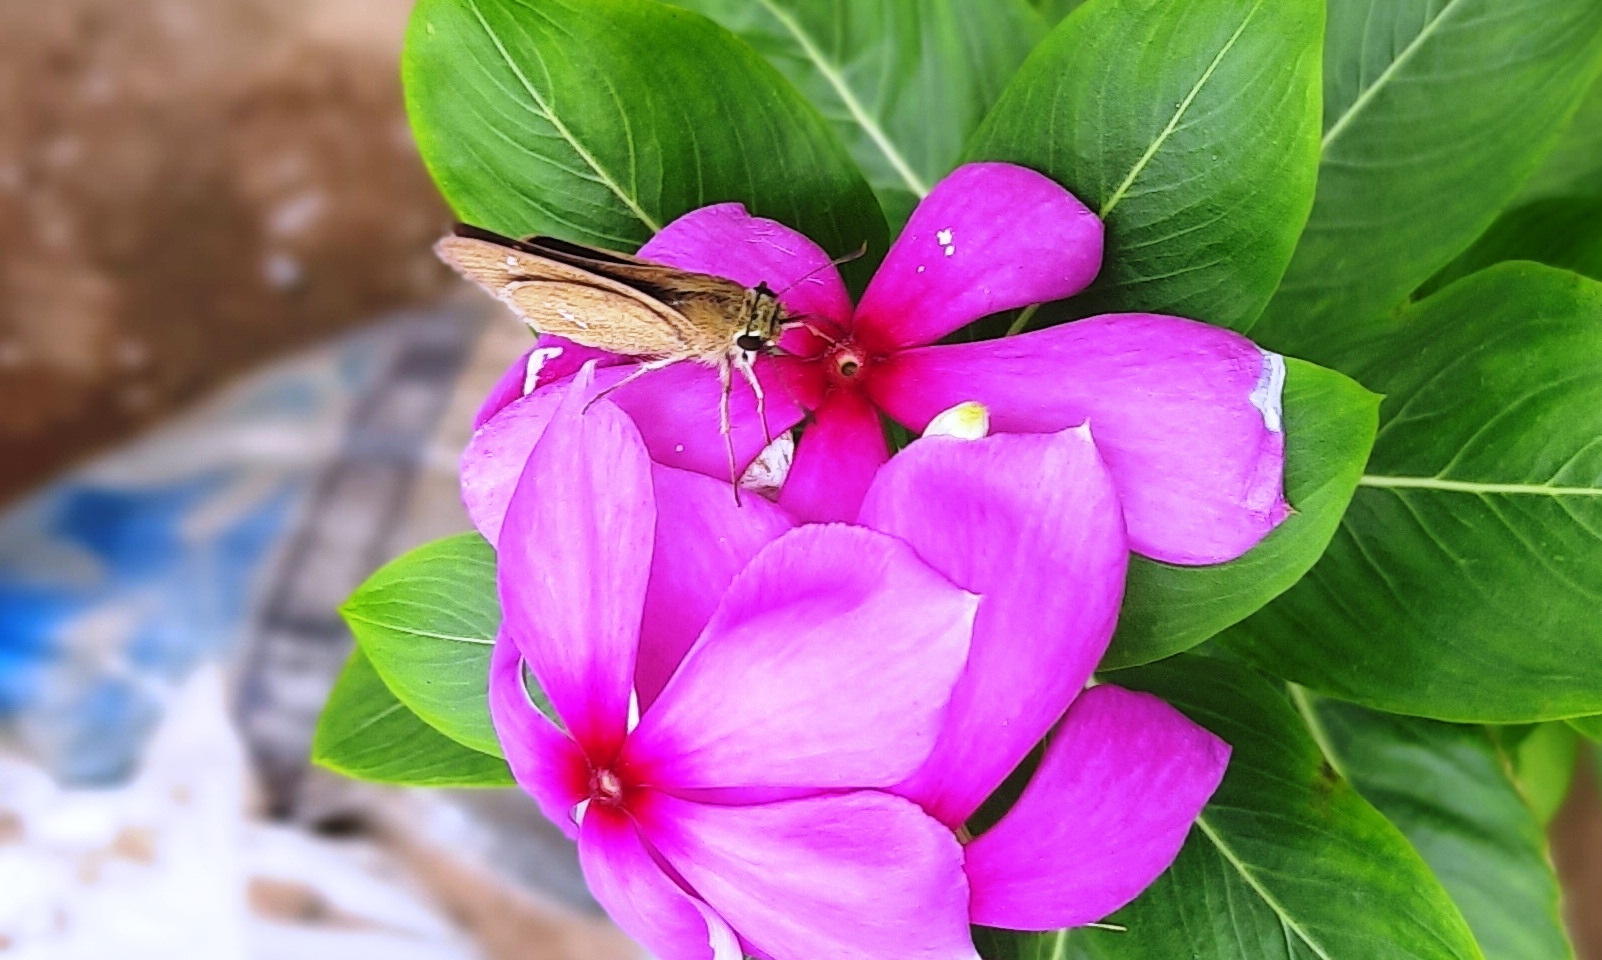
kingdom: Animalia
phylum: Arthropoda
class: Insecta
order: Lepidoptera
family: Hesperiidae
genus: Parnara
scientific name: Parnara
